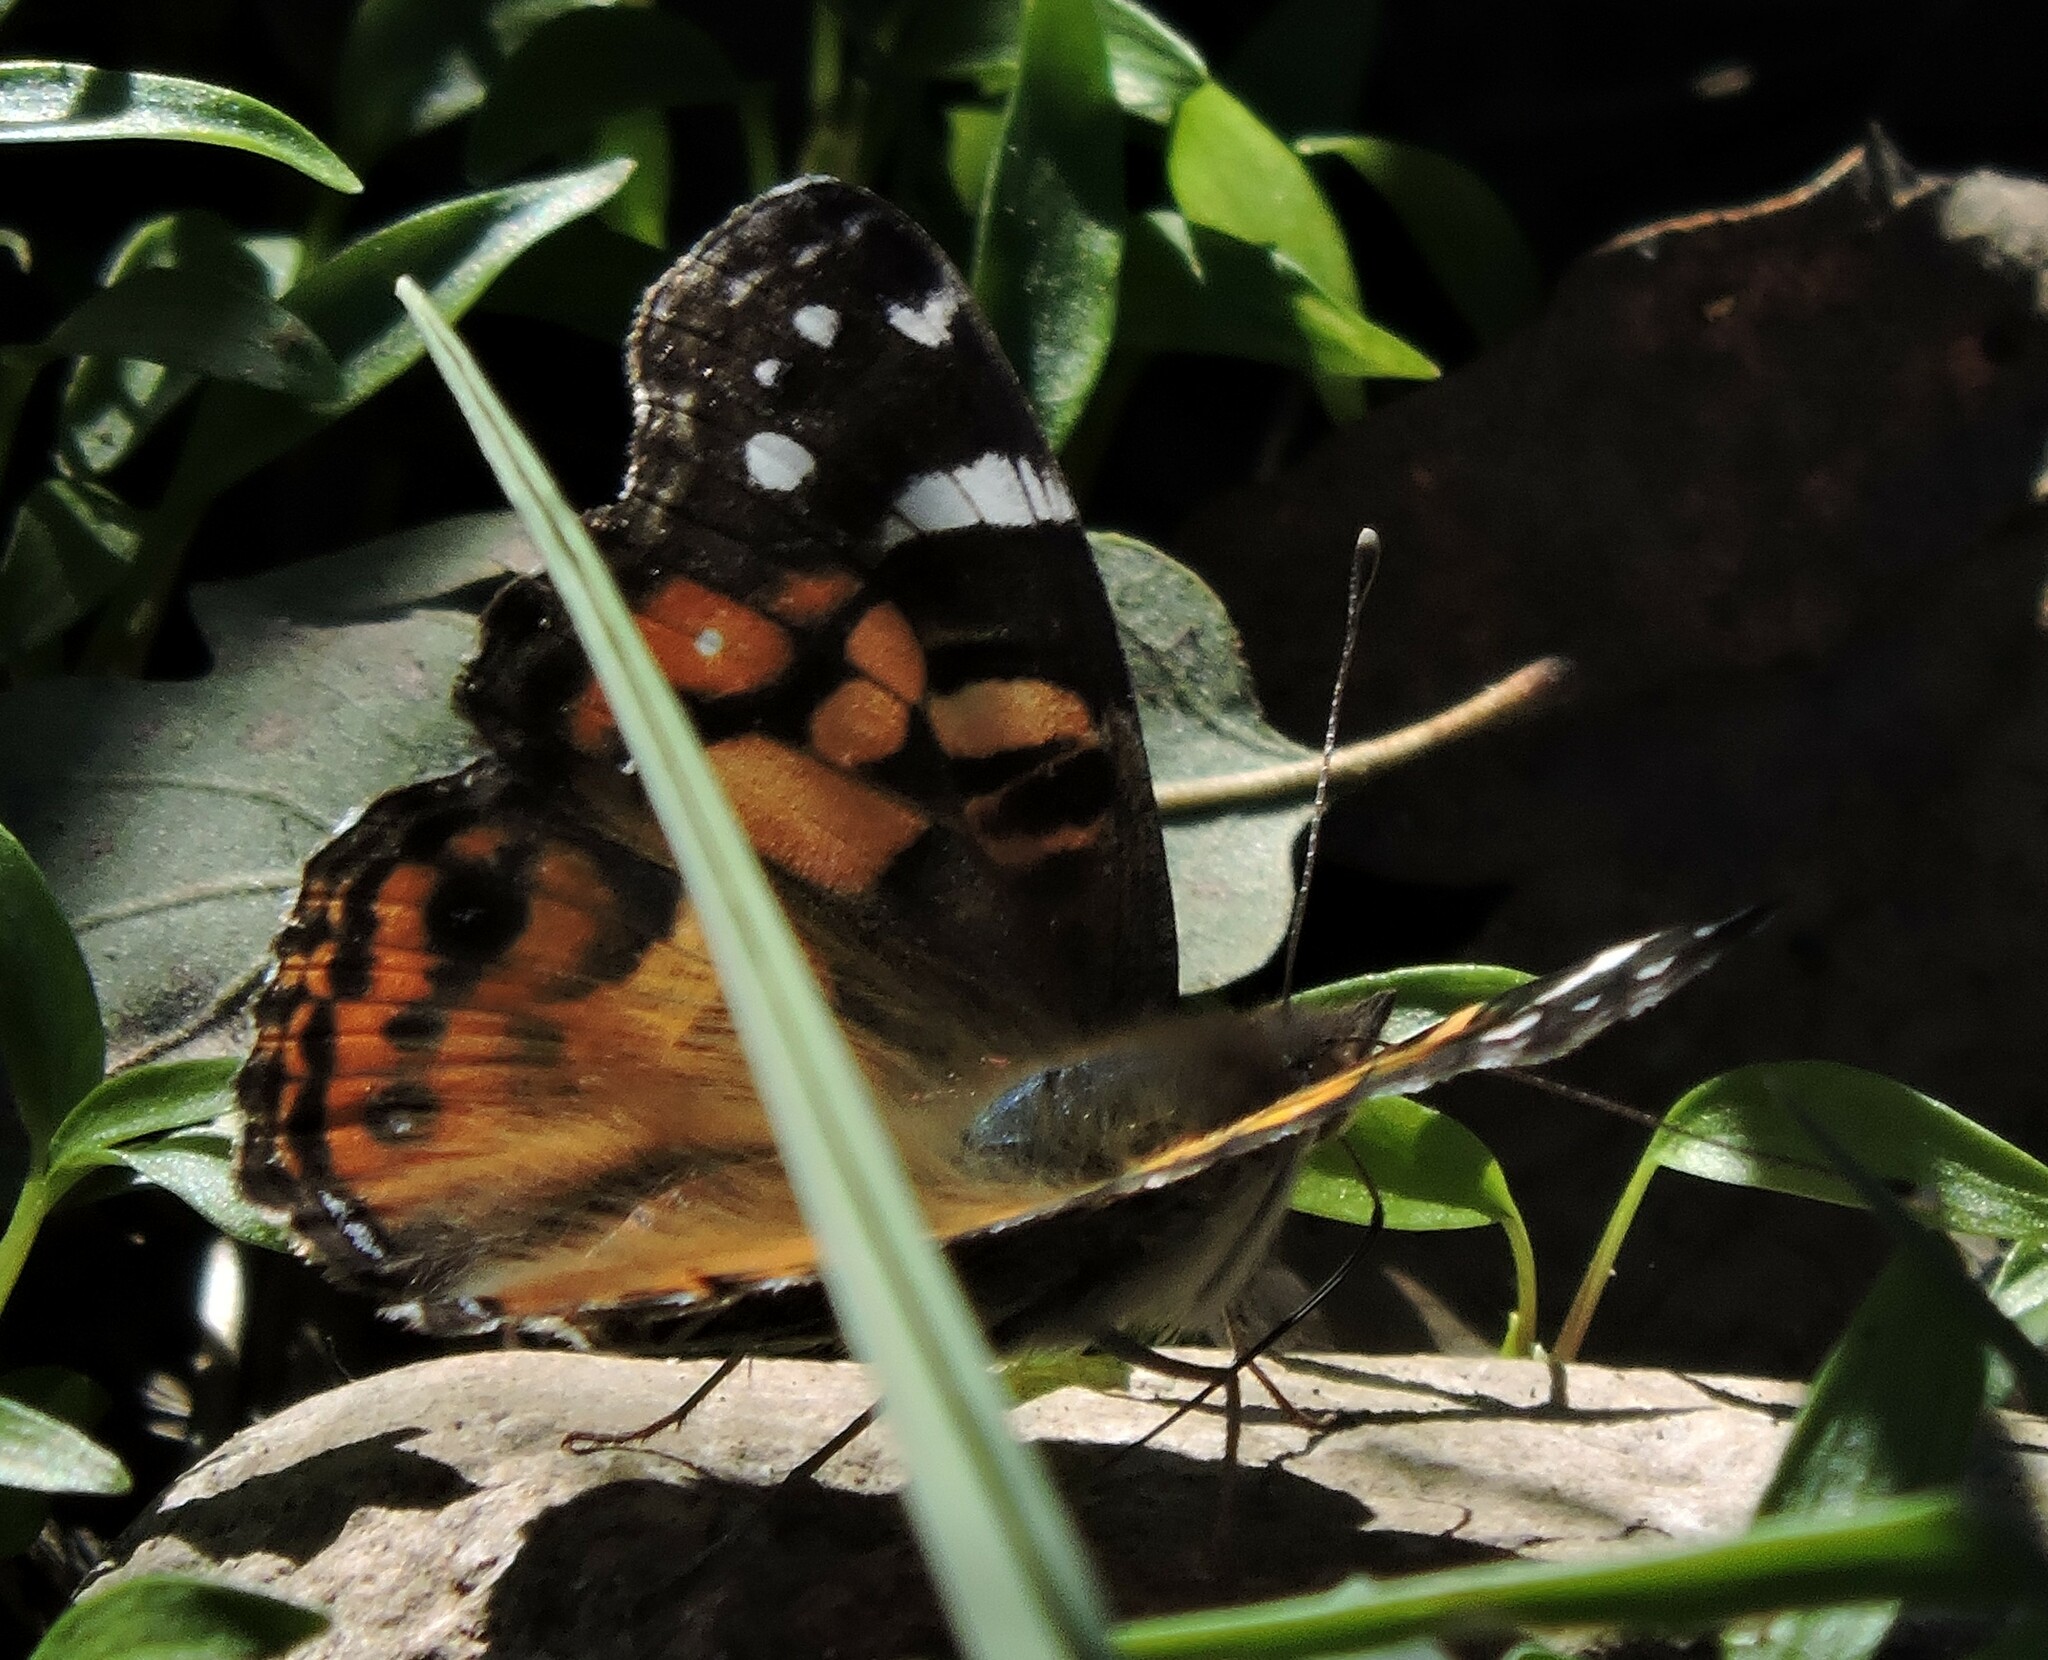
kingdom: Animalia
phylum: Arthropoda
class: Insecta
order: Lepidoptera
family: Nymphalidae
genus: Vanessa
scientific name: Vanessa virginiensis
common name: American lady
